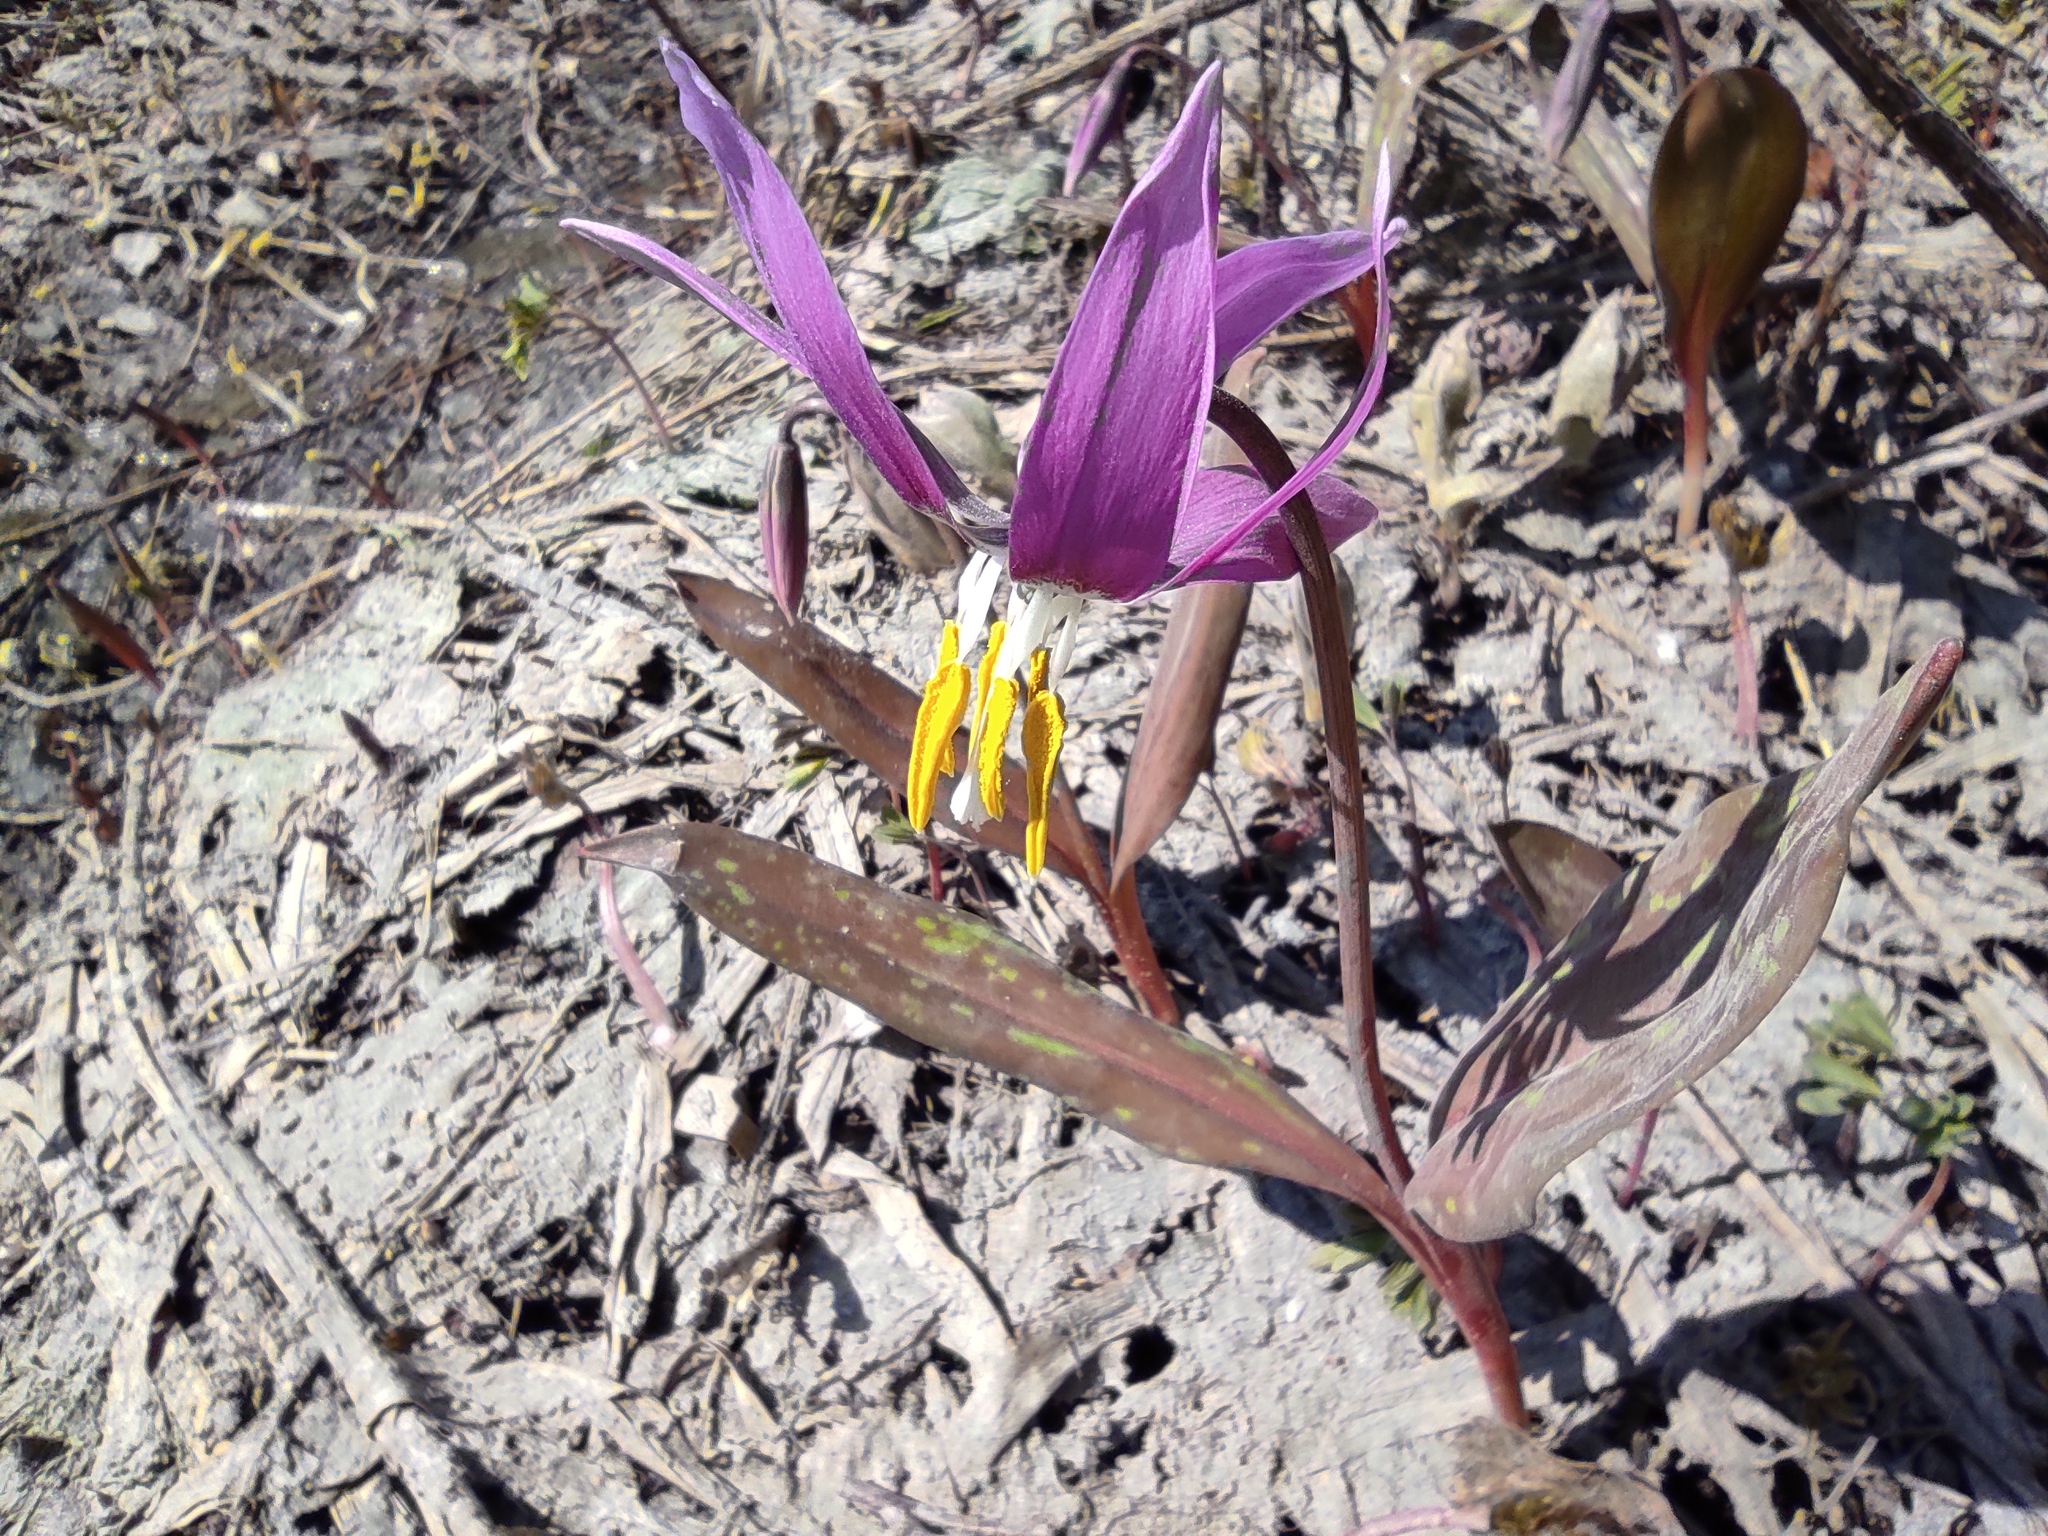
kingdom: Plantae
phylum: Tracheophyta
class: Liliopsida
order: Liliales
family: Liliaceae
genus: Erythronium
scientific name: Erythronium sibiricum
